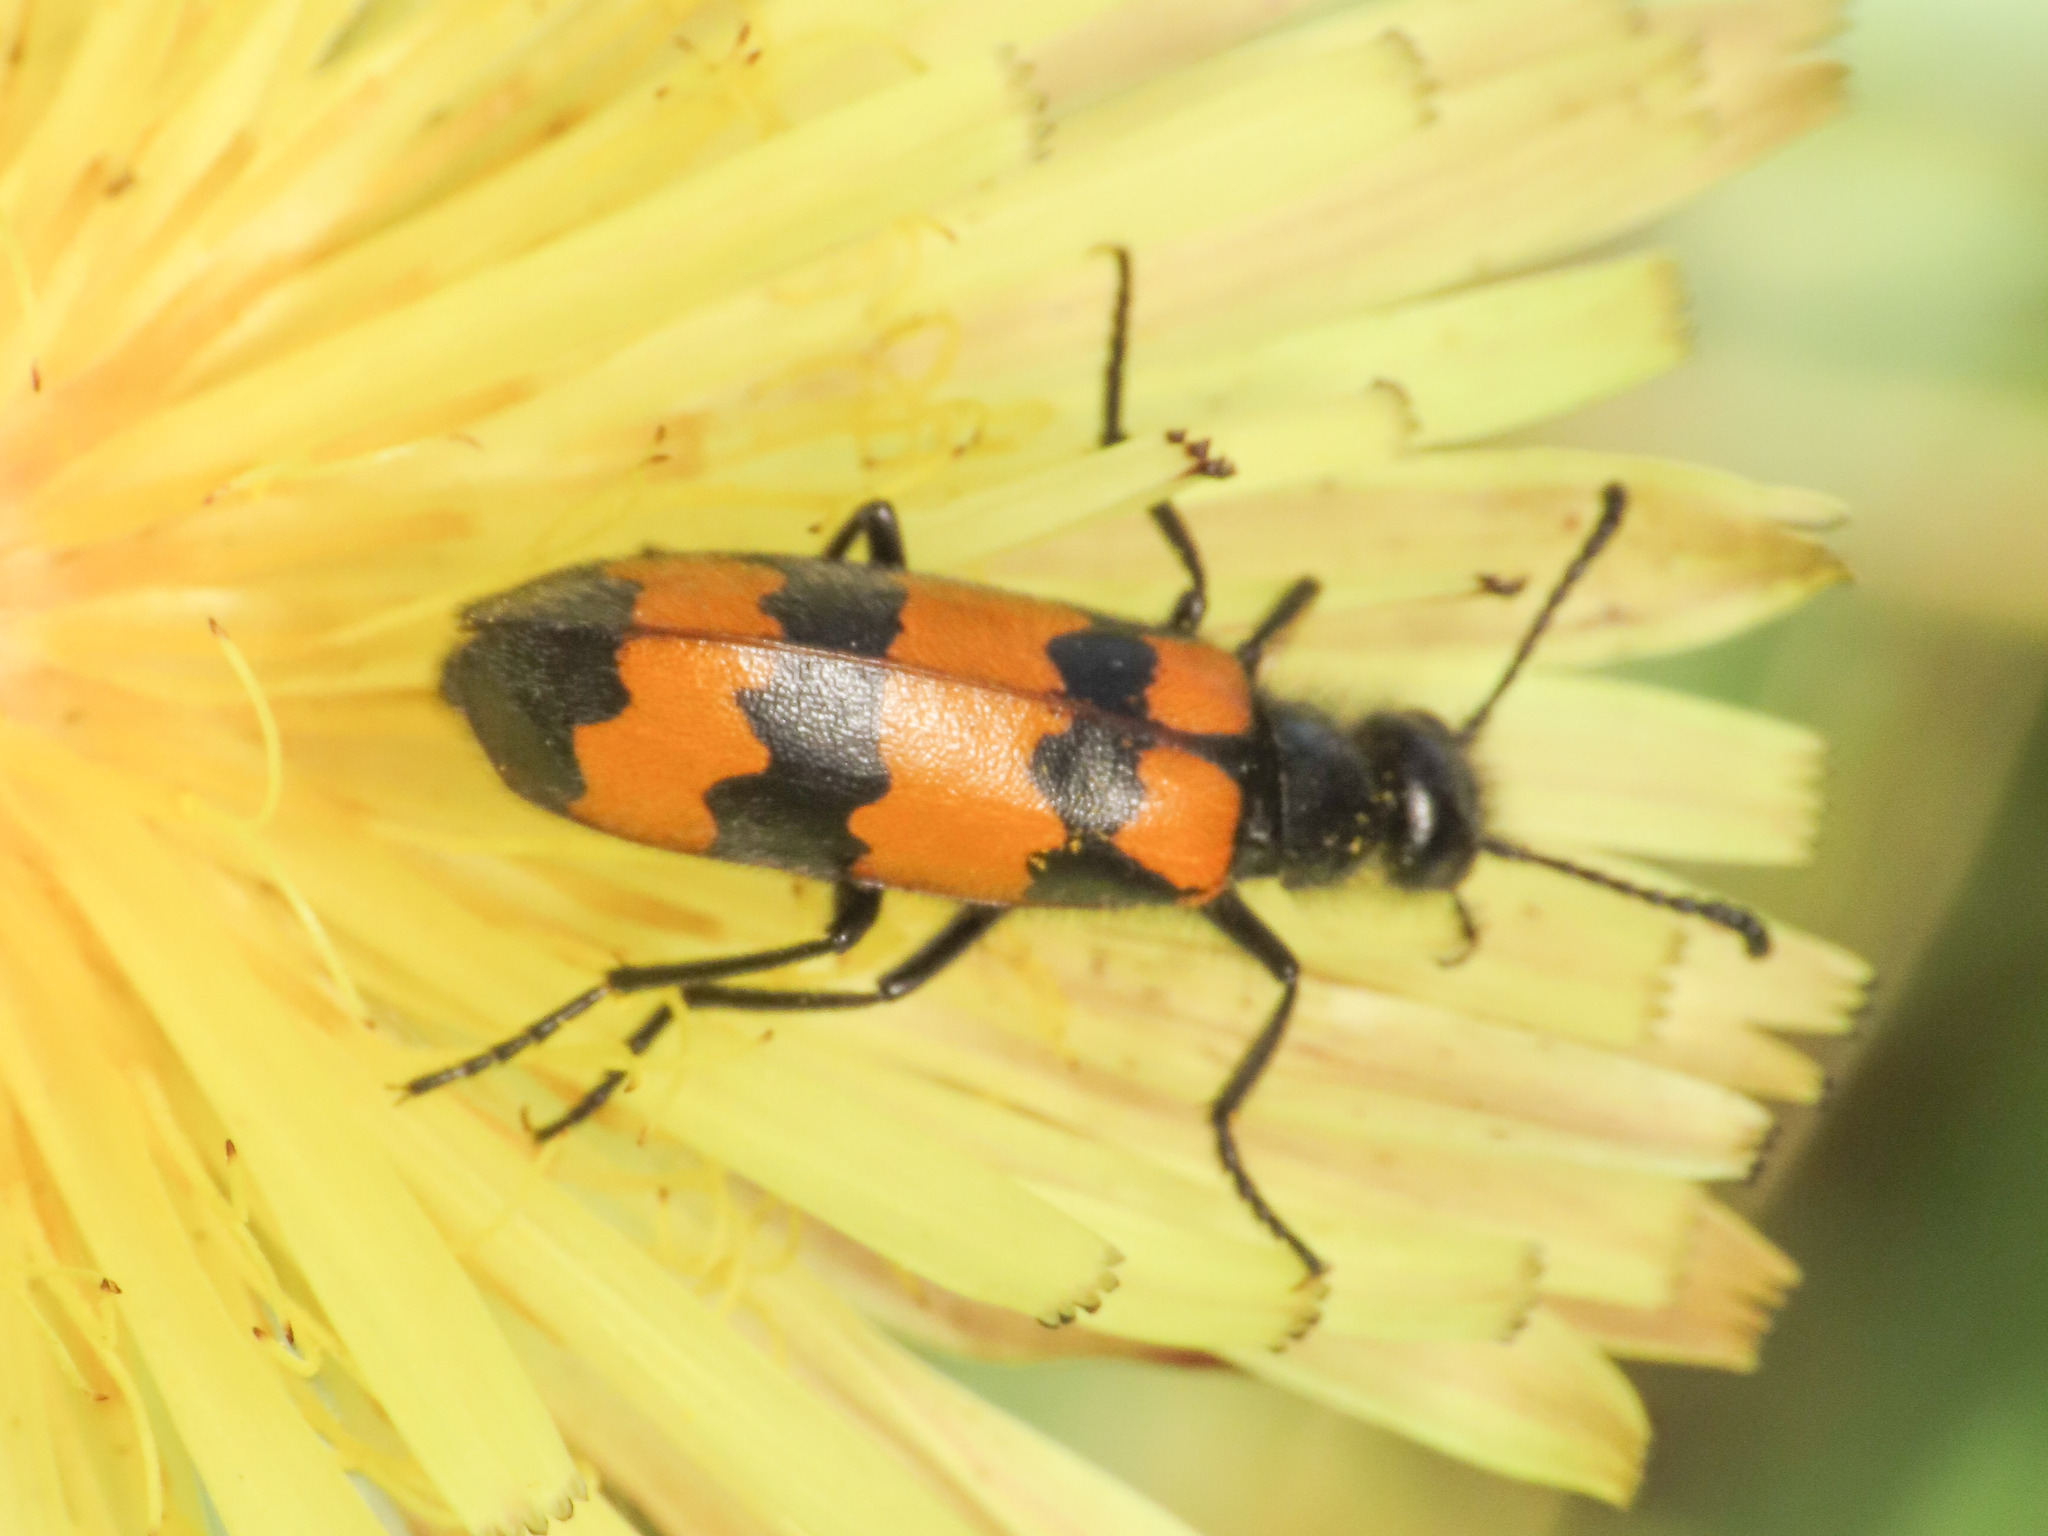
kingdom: Animalia
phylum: Arthropoda
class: Insecta
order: Coleoptera
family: Meloidae
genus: Mylabris
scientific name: Mylabris variabilis
